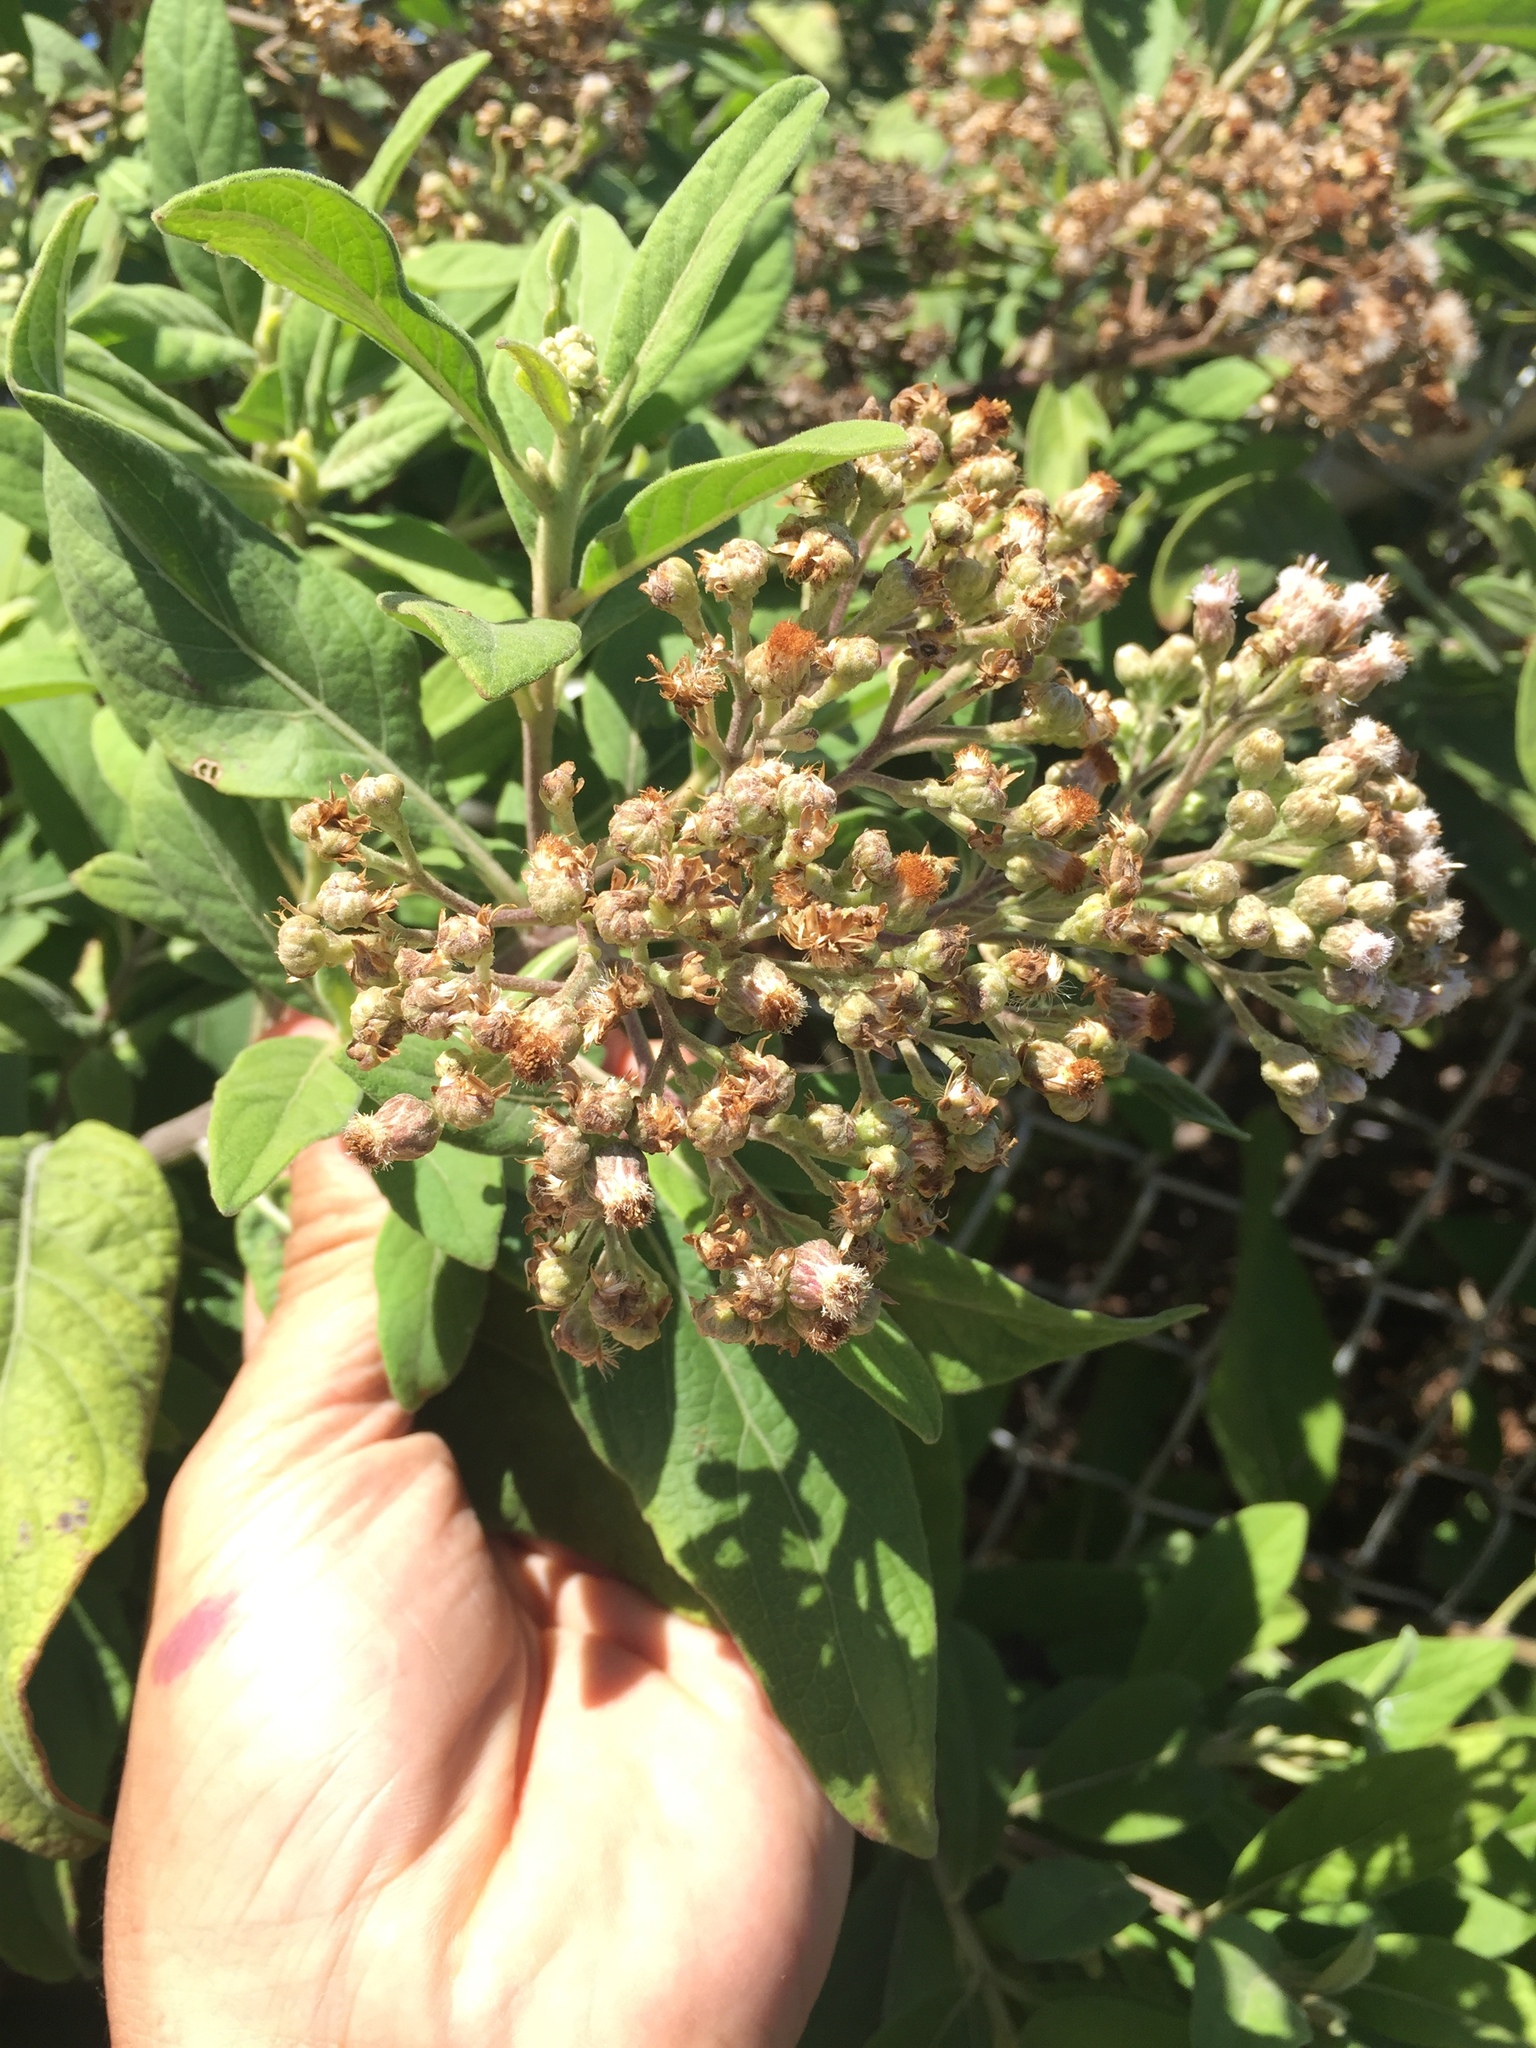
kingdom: Plantae
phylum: Tracheophyta
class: Magnoliopsida
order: Asterales
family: Asteraceae
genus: Pluchea
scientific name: Pluchea carolinensis
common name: Marsh fleabane
